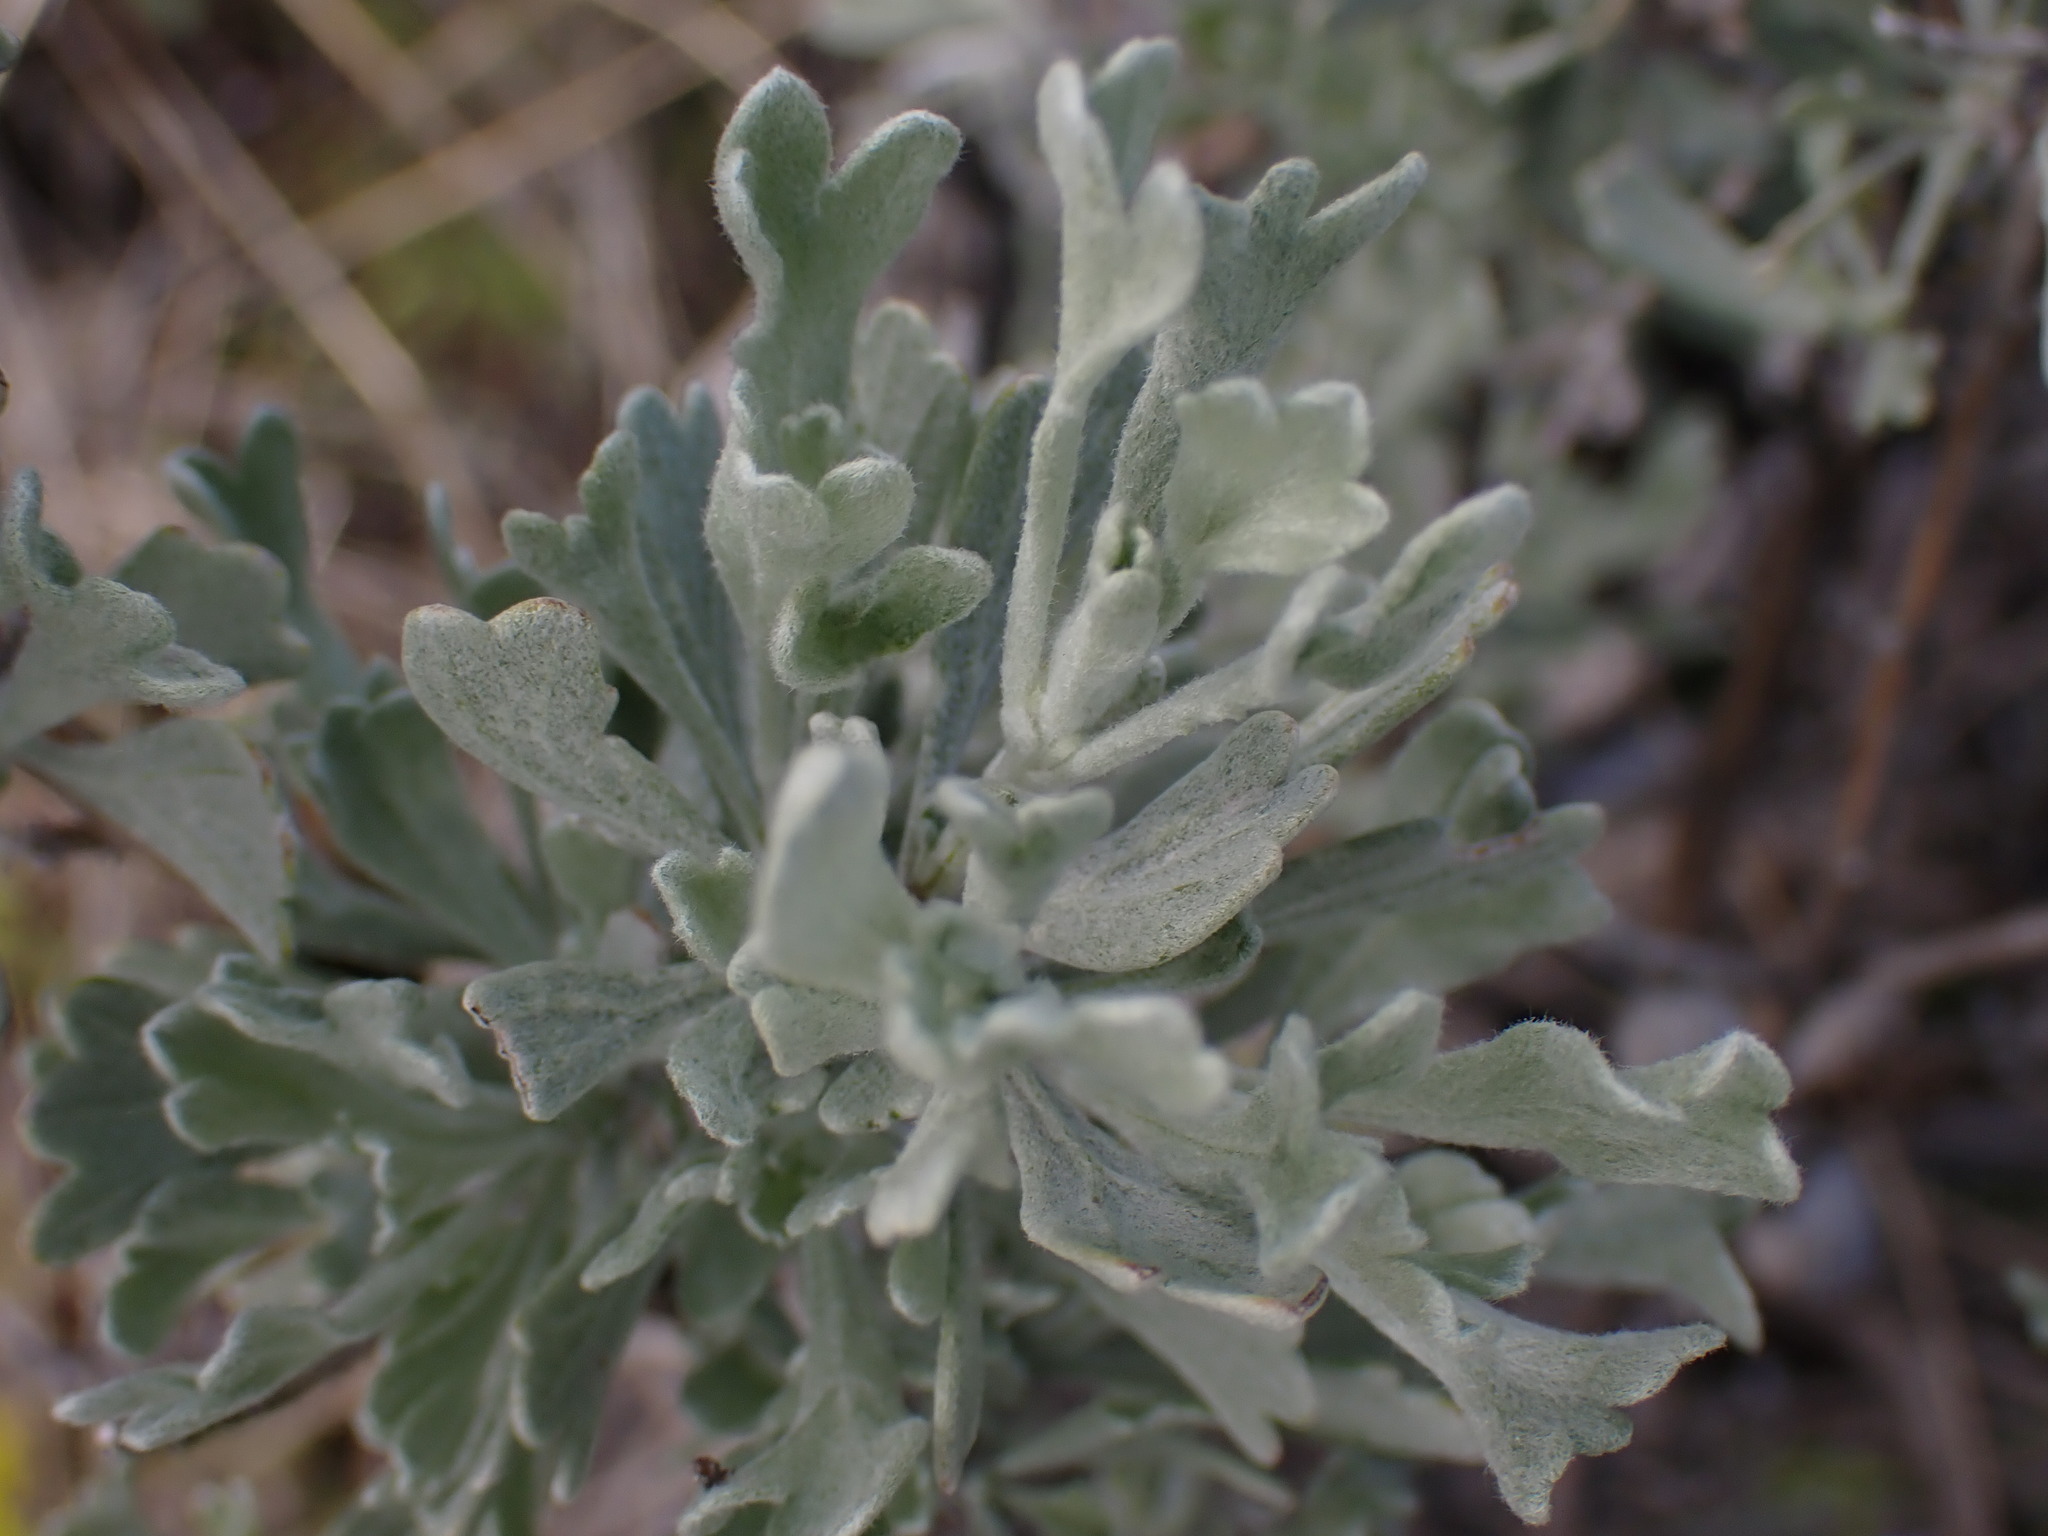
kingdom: Plantae
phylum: Tracheophyta
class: Magnoliopsida
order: Asterales
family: Asteraceae
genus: Artemisia
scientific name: Artemisia tridentata
